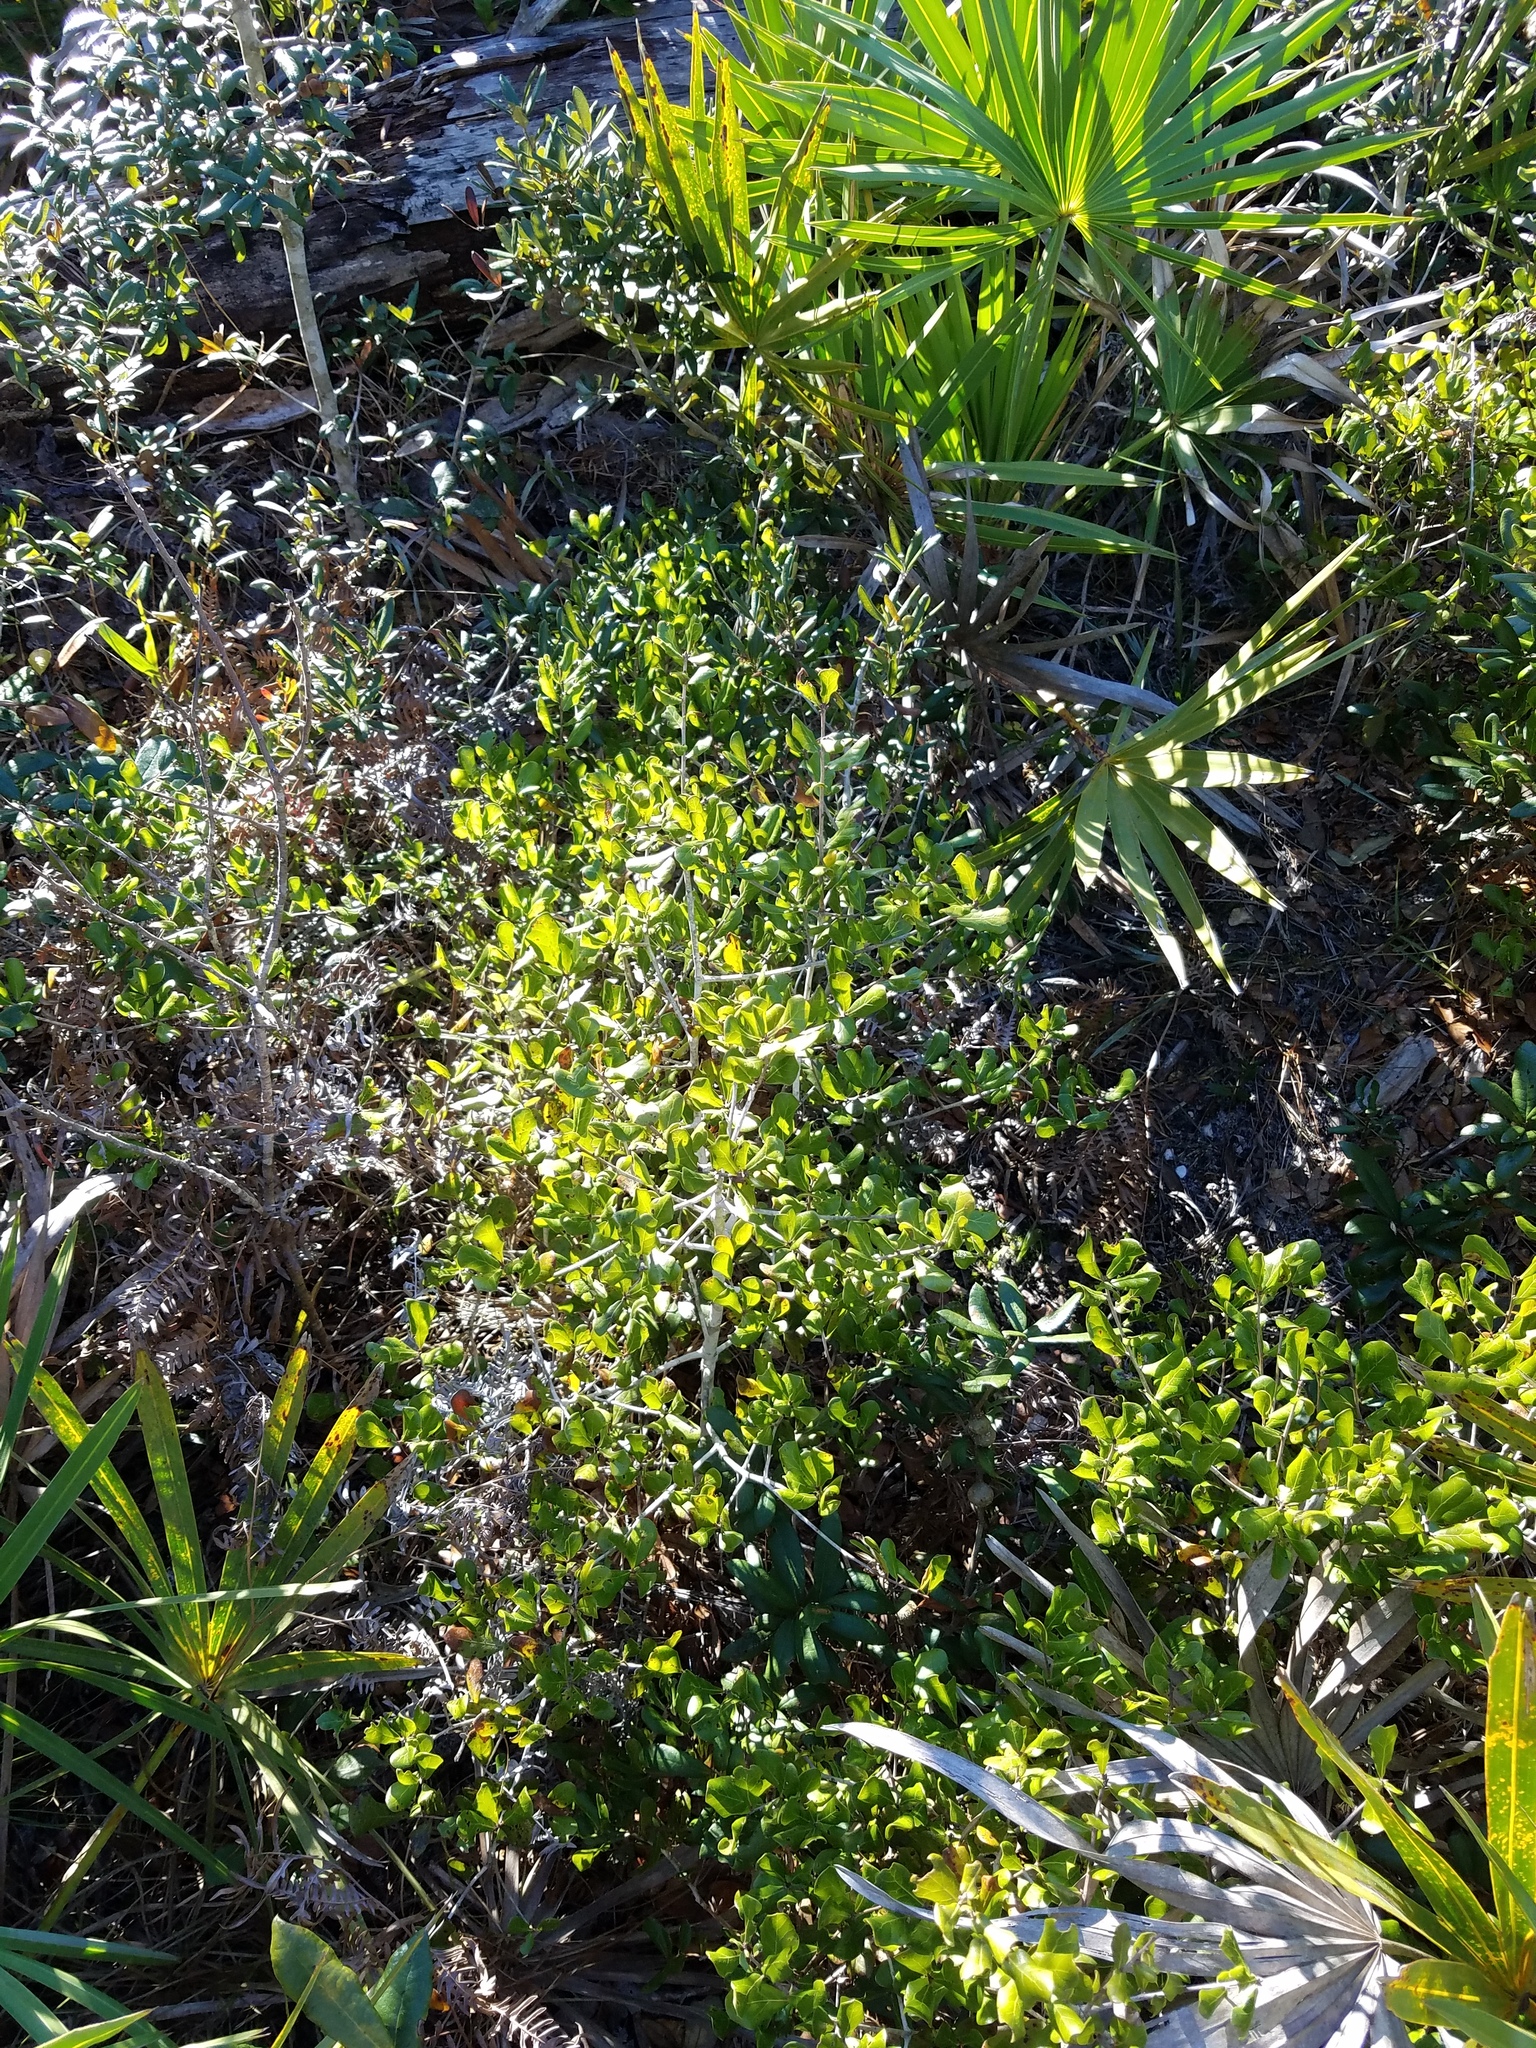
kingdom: Plantae
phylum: Tracheophyta
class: Magnoliopsida
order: Fagales
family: Fagaceae
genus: Quercus
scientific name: Quercus myrtifolia
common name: Myrtle oak
